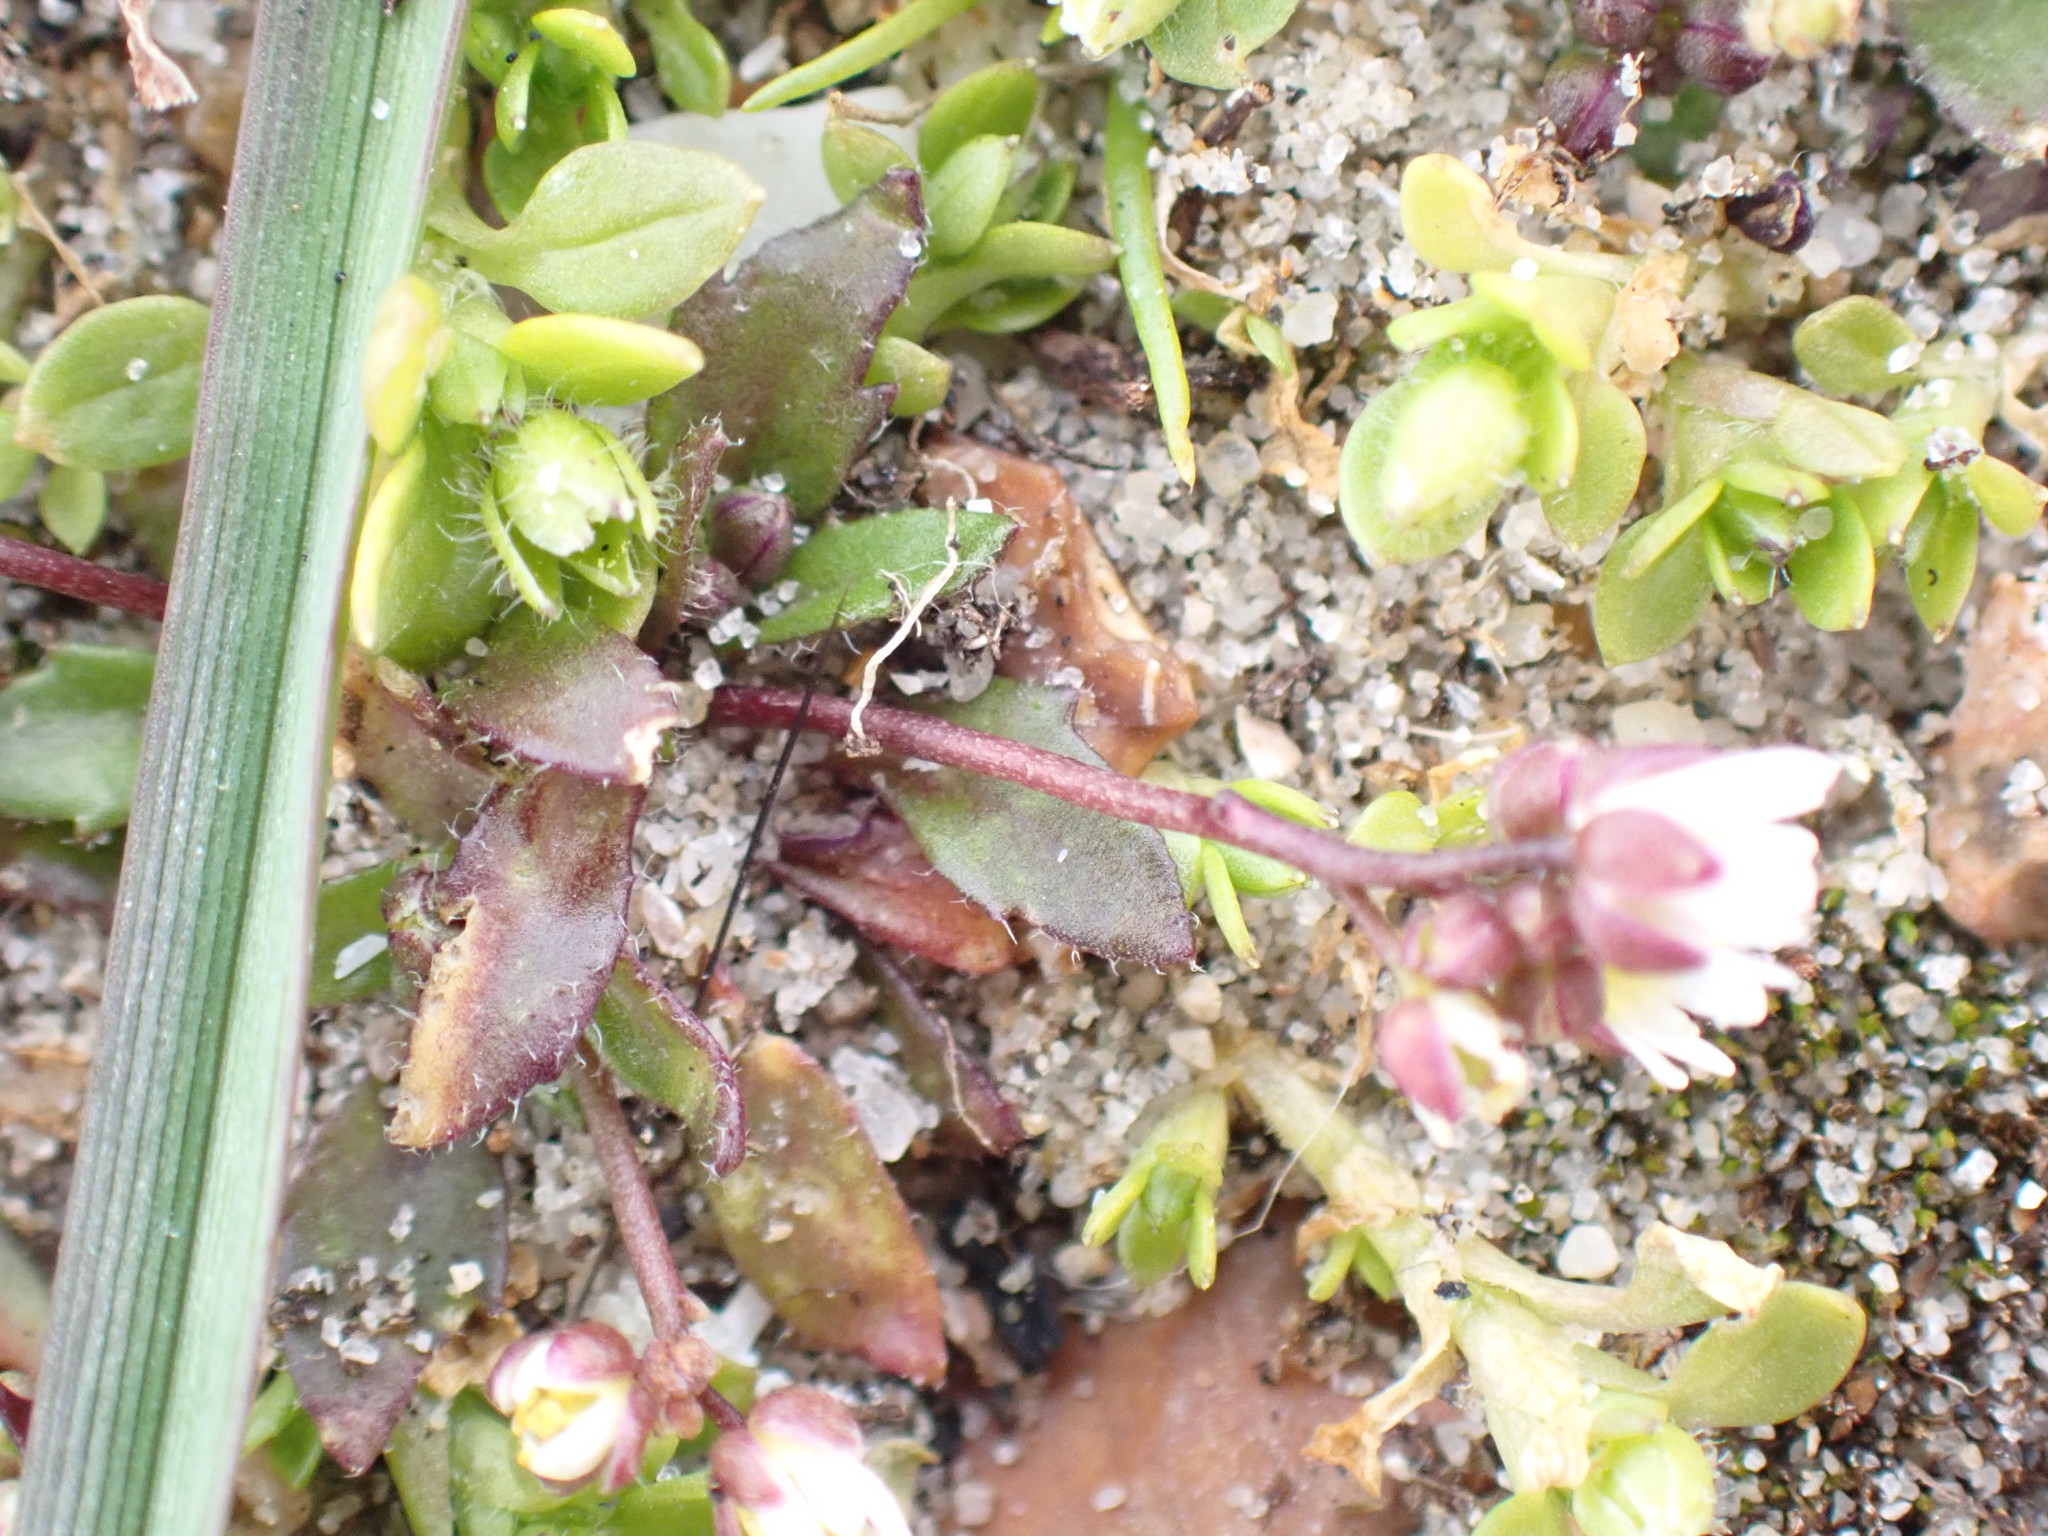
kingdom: Plantae
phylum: Tracheophyta
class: Magnoliopsida
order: Brassicales
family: Brassicaceae
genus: Draba
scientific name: Draba verna
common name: Spring draba
